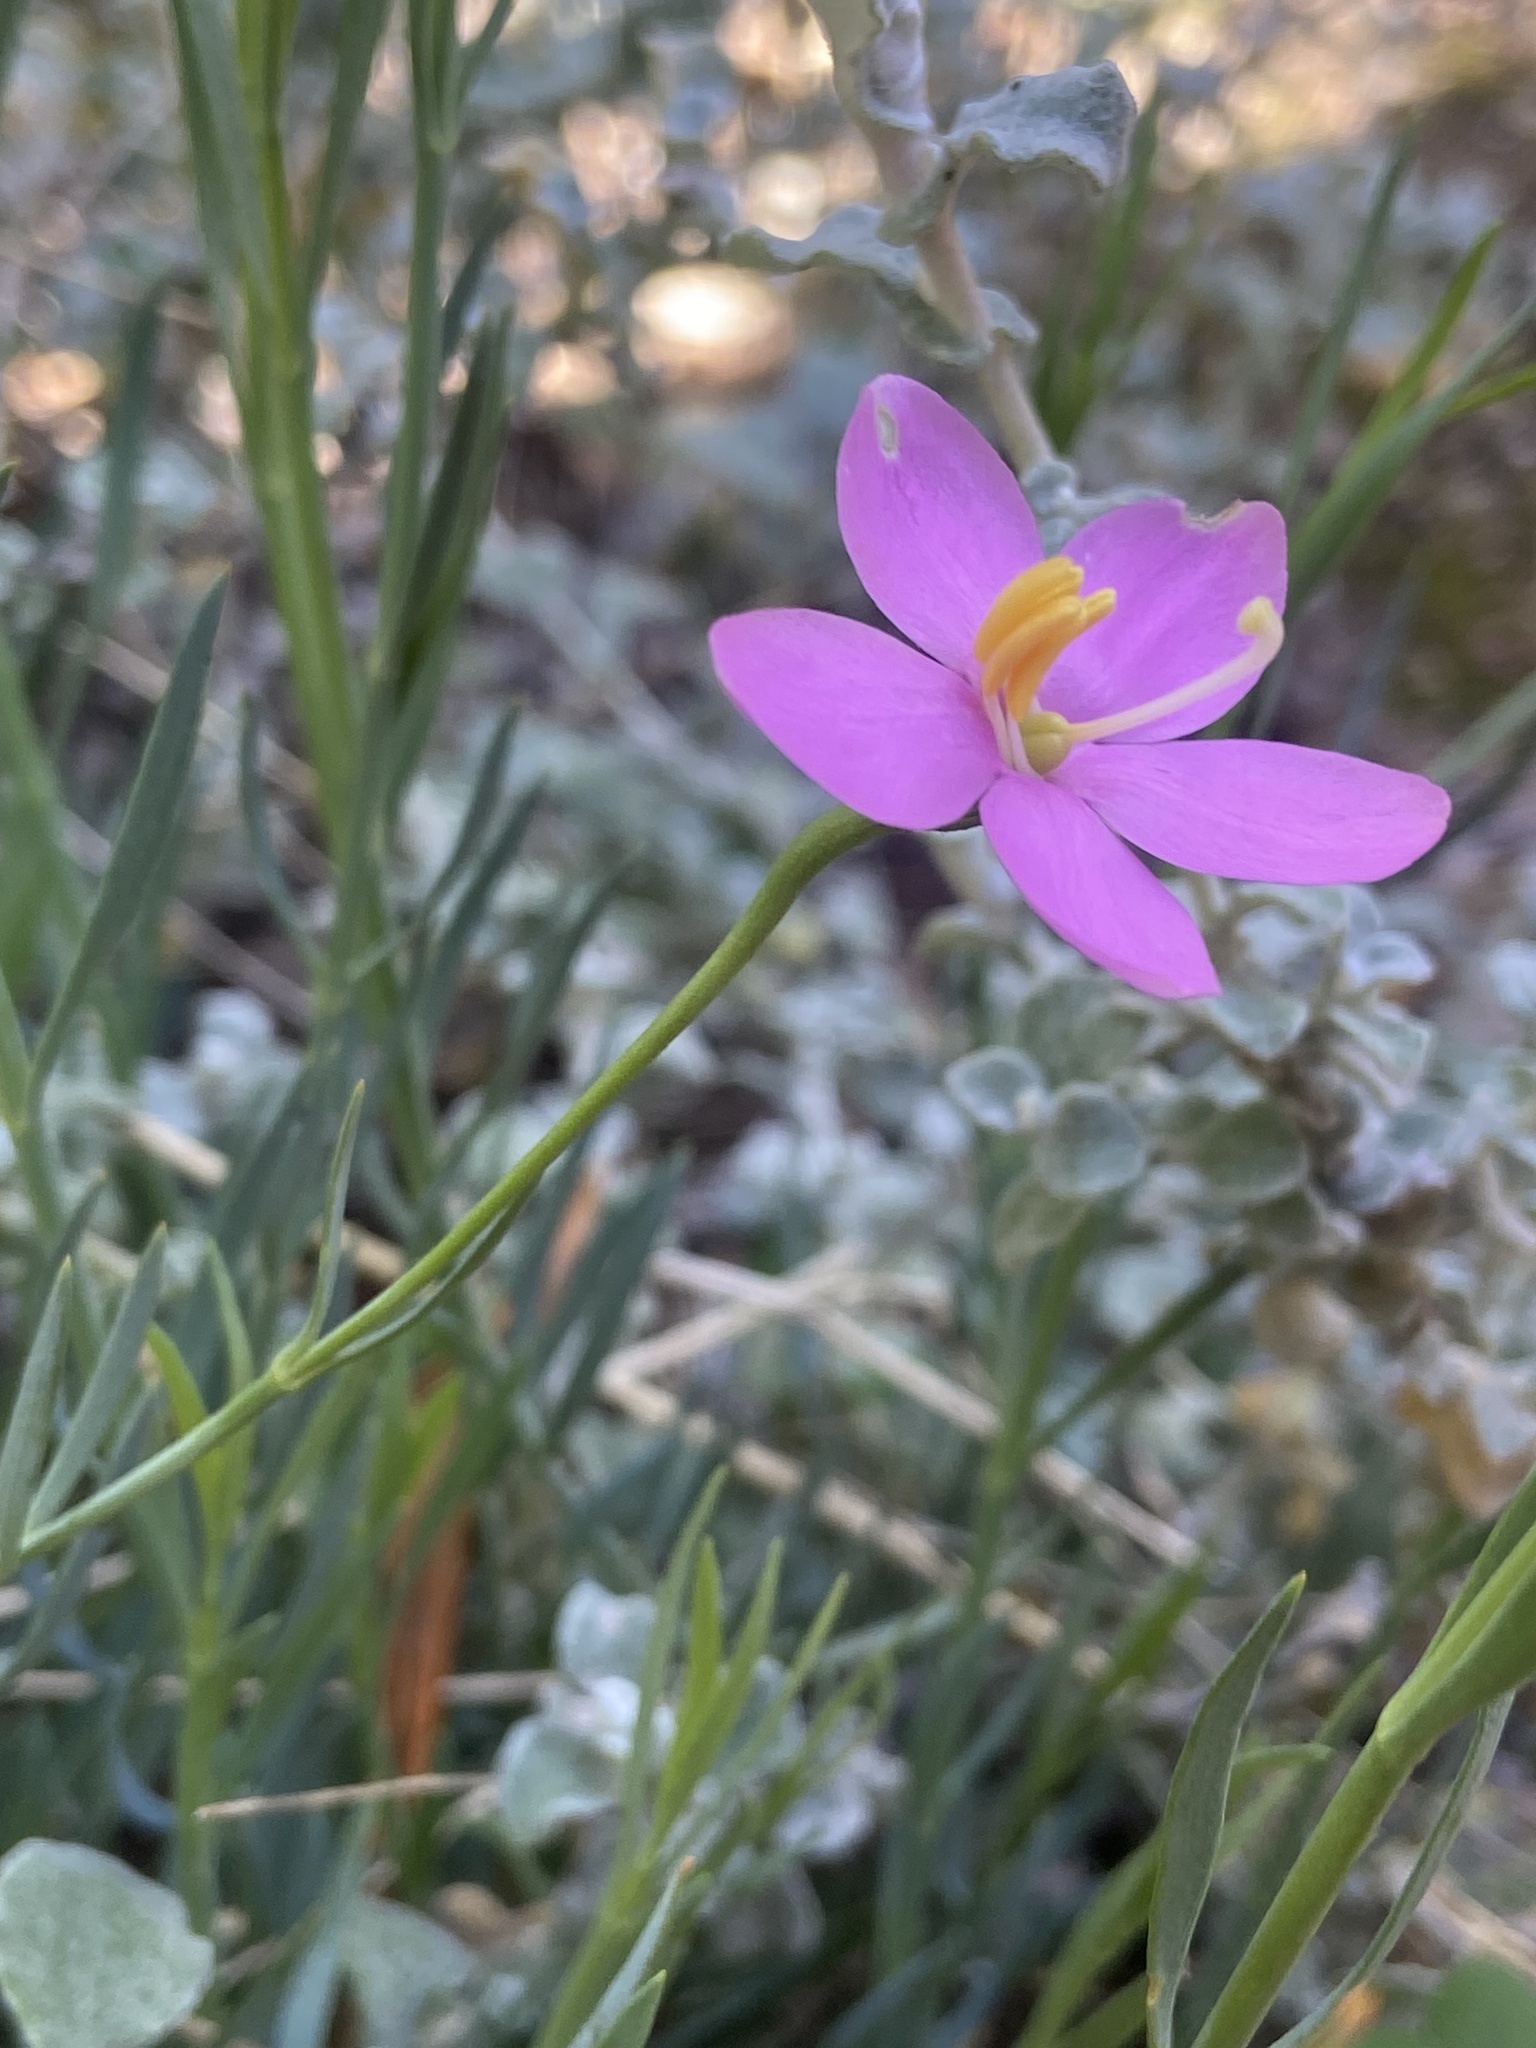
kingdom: Plantae
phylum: Tracheophyta
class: Magnoliopsida
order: Gentianales
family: Gentianaceae
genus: Chironia
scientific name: Chironia linoides
